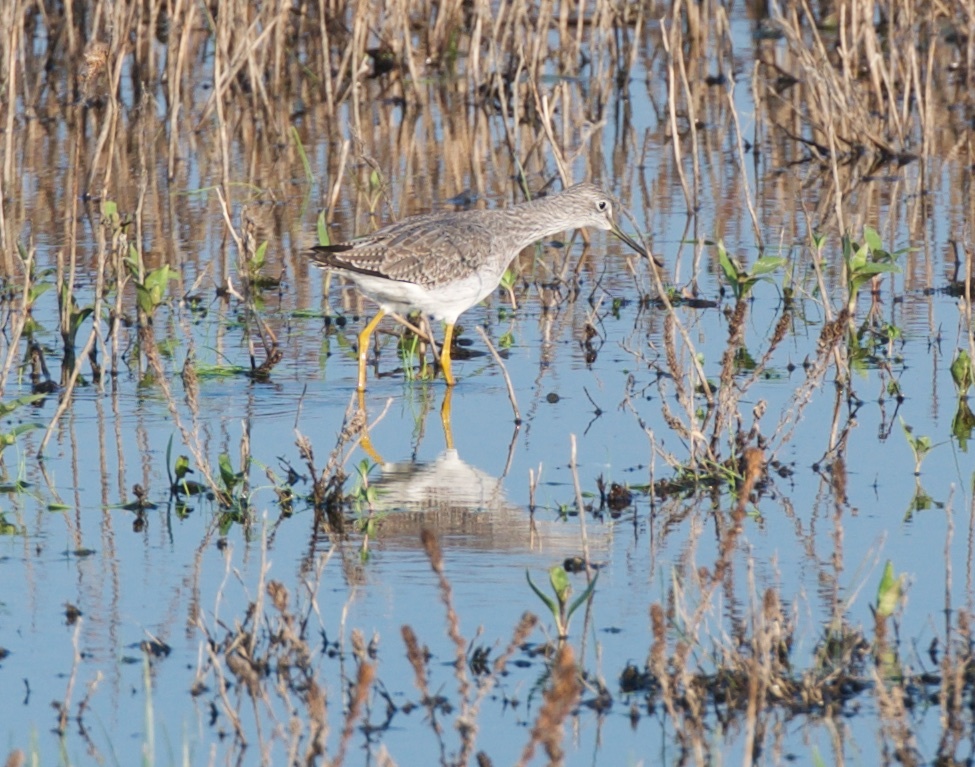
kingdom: Animalia
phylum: Chordata
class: Aves
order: Charadriiformes
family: Scolopacidae
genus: Tringa
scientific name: Tringa melanoleuca
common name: Greater yellowlegs
